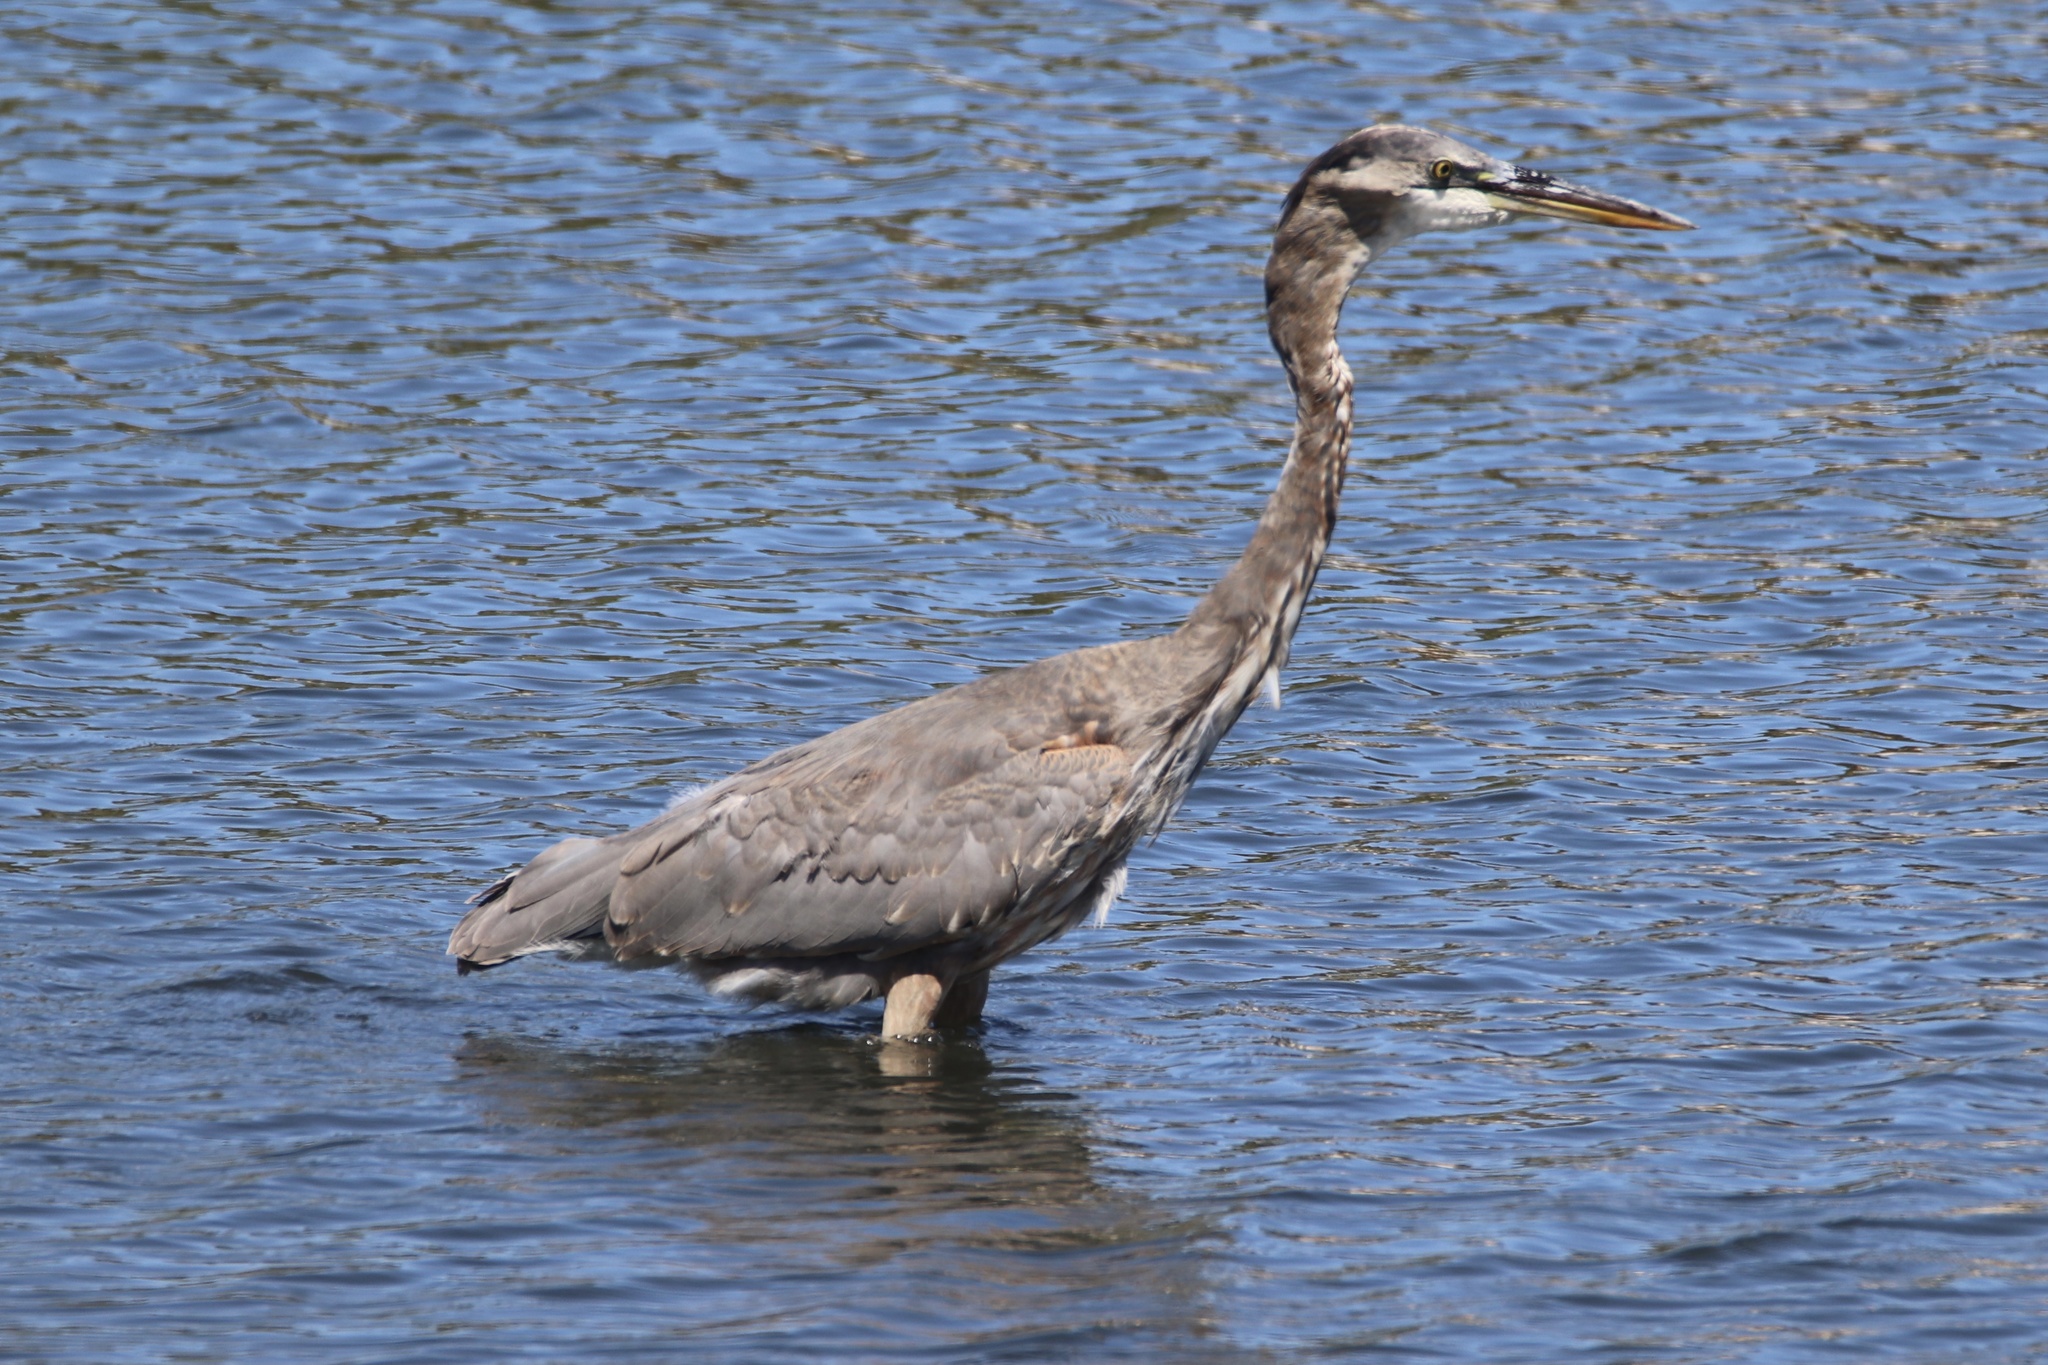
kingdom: Animalia
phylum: Chordata
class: Aves
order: Pelecaniformes
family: Ardeidae
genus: Ardea
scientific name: Ardea herodias
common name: Great blue heron
